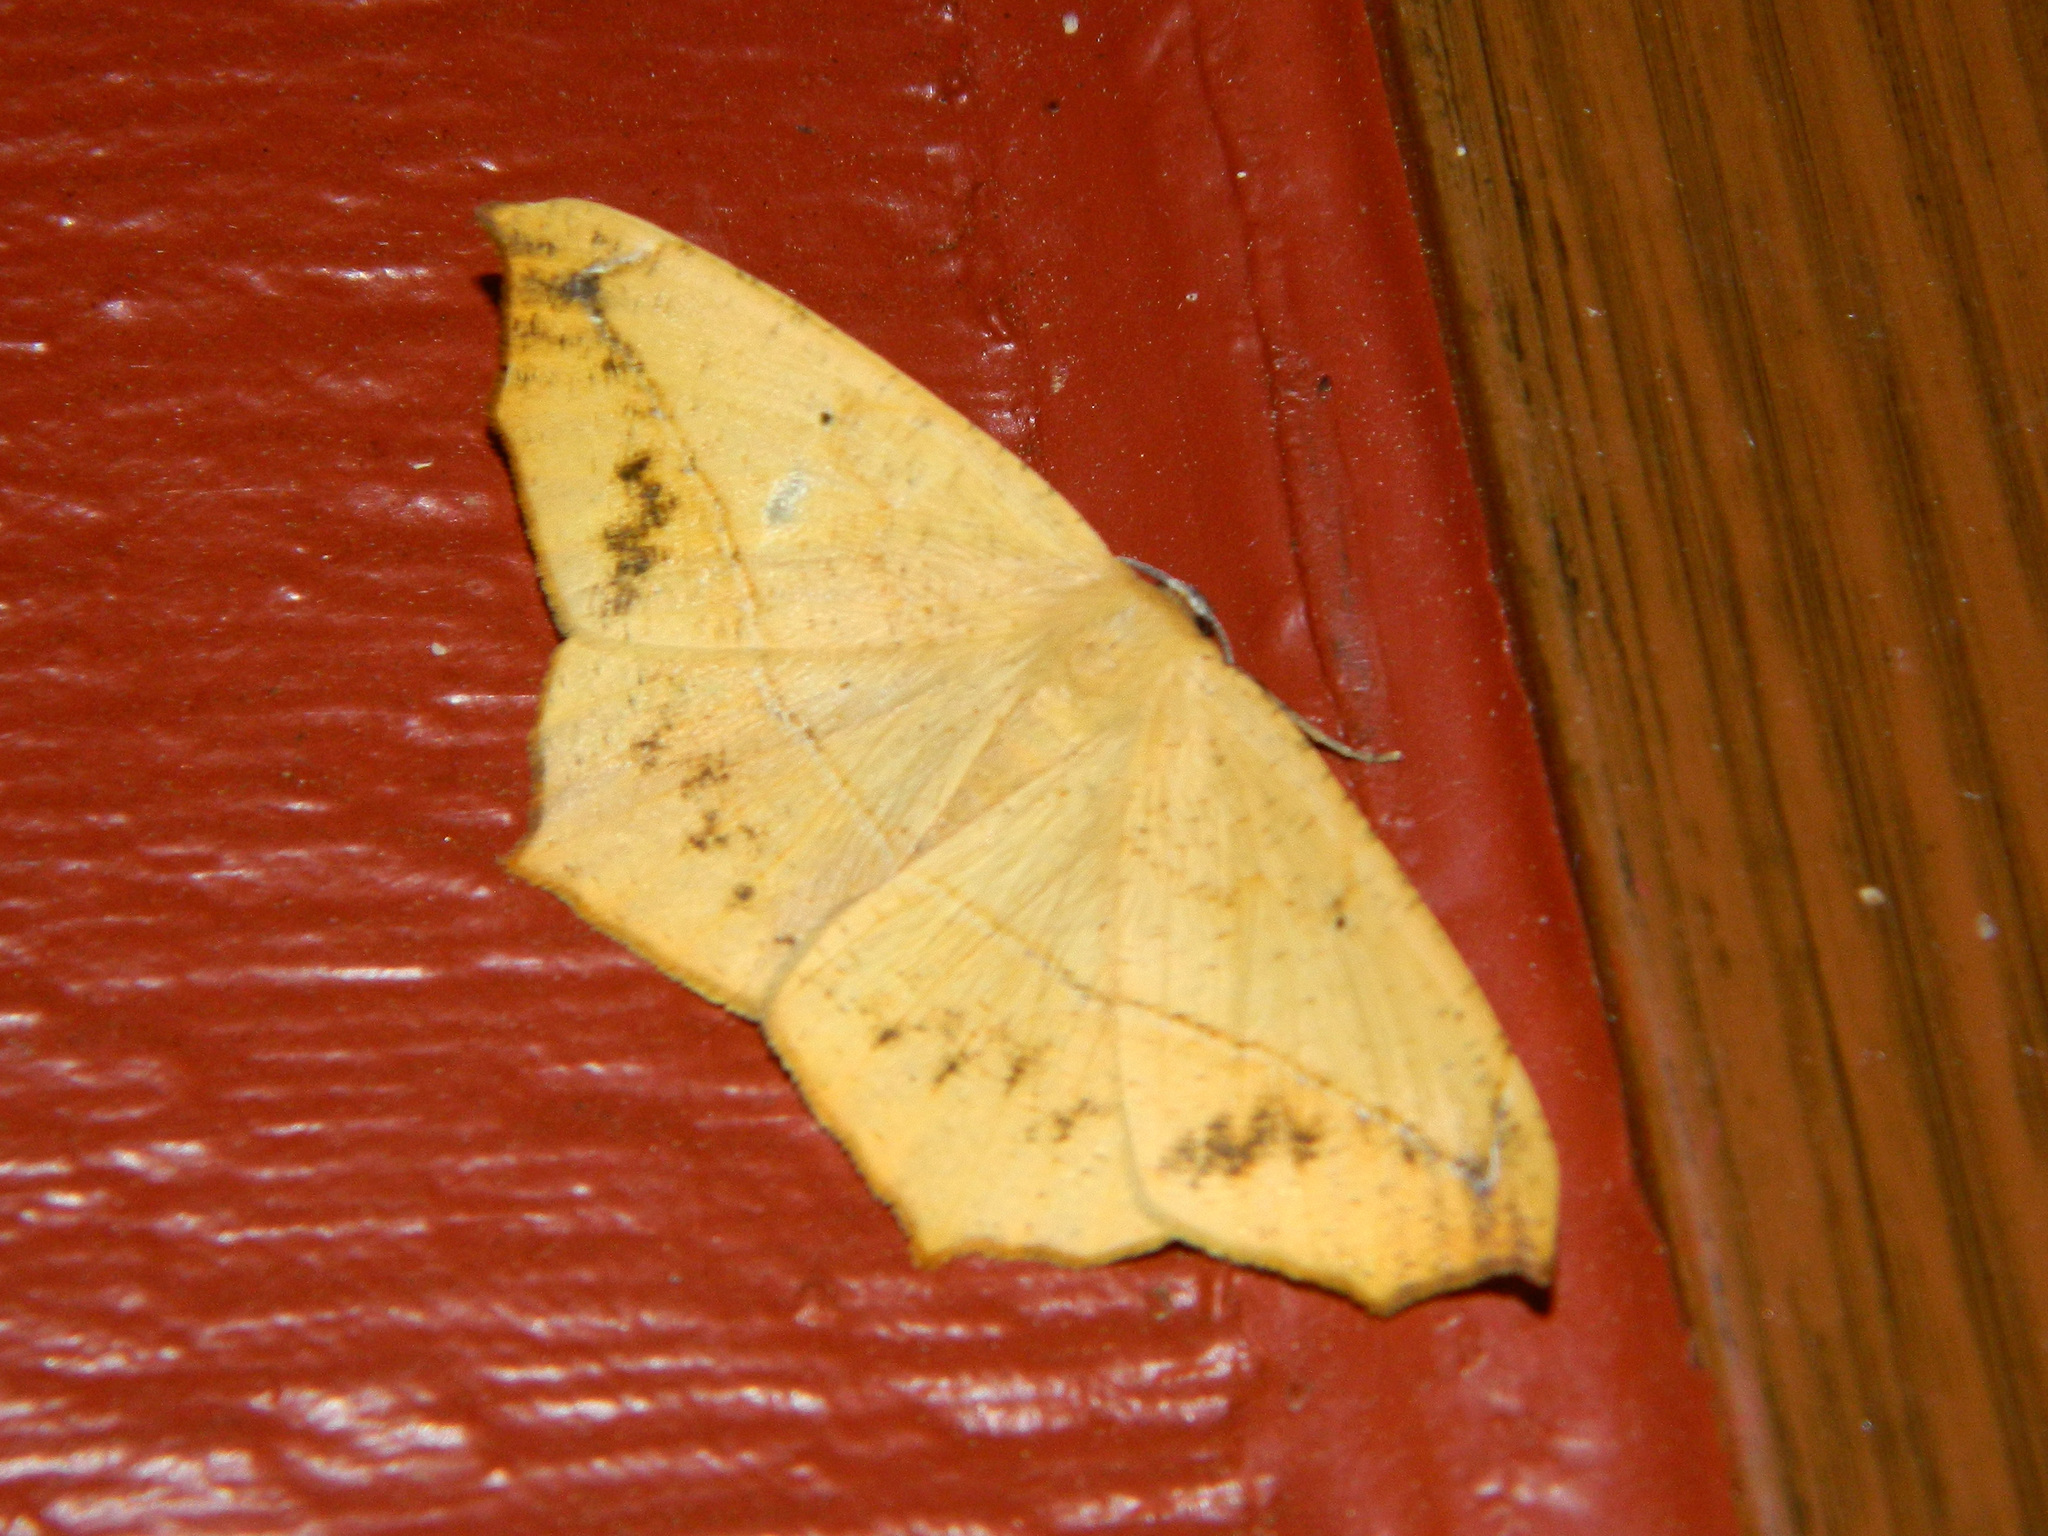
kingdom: Animalia
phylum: Arthropoda
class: Insecta
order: Lepidoptera
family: Geometridae
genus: Prochoerodes
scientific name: Prochoerodes lineola
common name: Large maple spanworm
